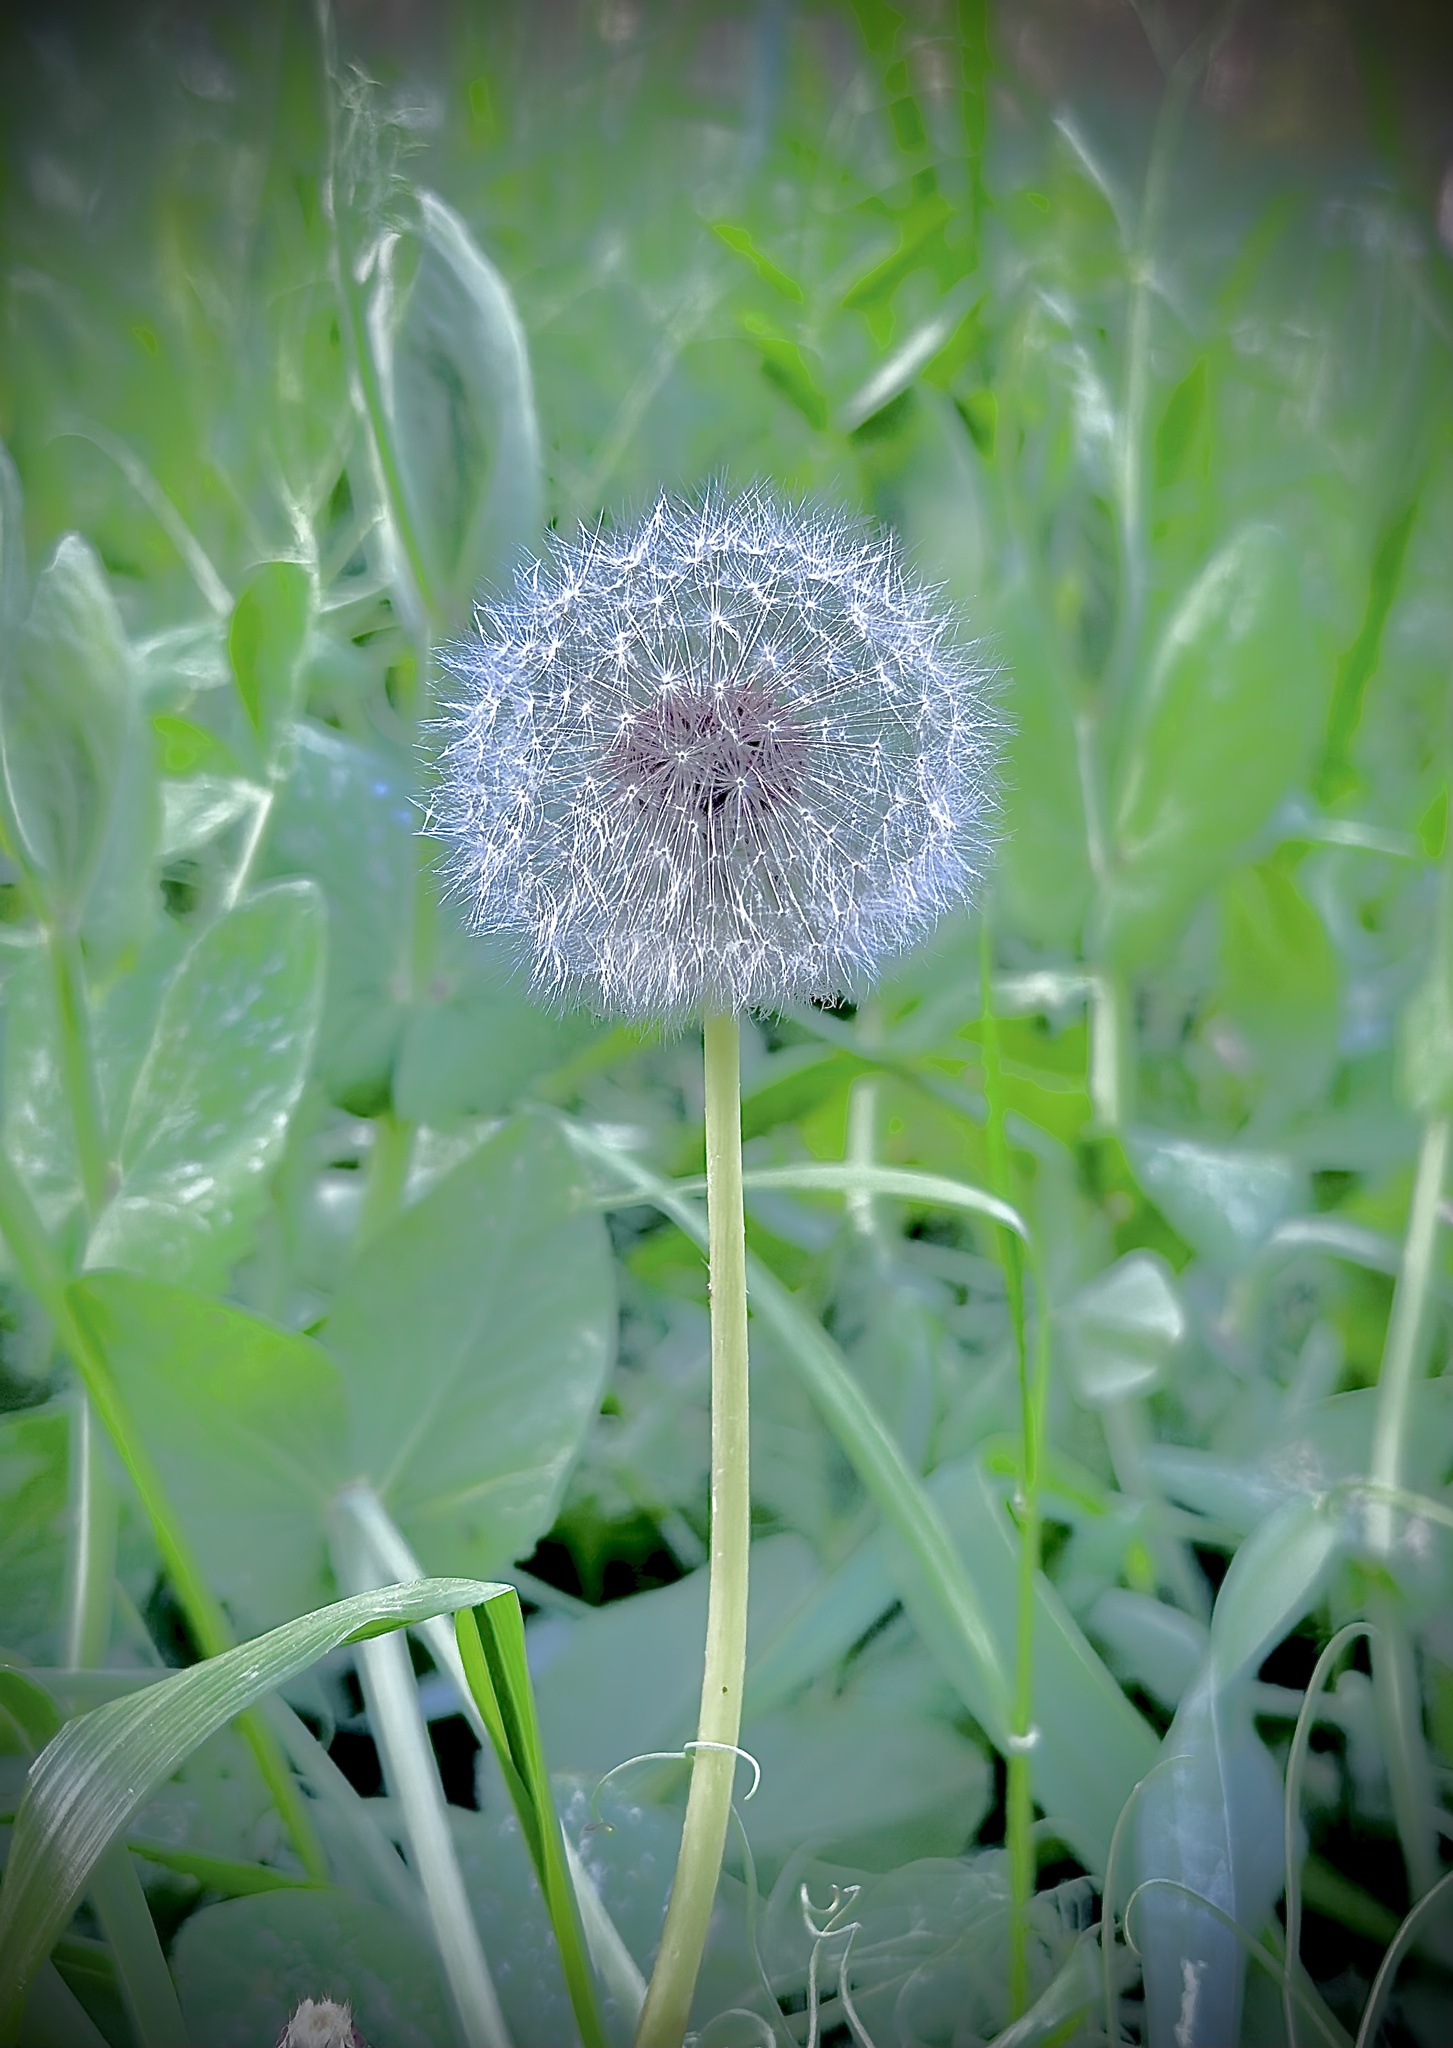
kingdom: Plantae
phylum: Tracheophyta
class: Magnoliopsida
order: Asterales
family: Asteraceae
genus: Taraxacum
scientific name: Taraxacum officinale
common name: Common dandelion
